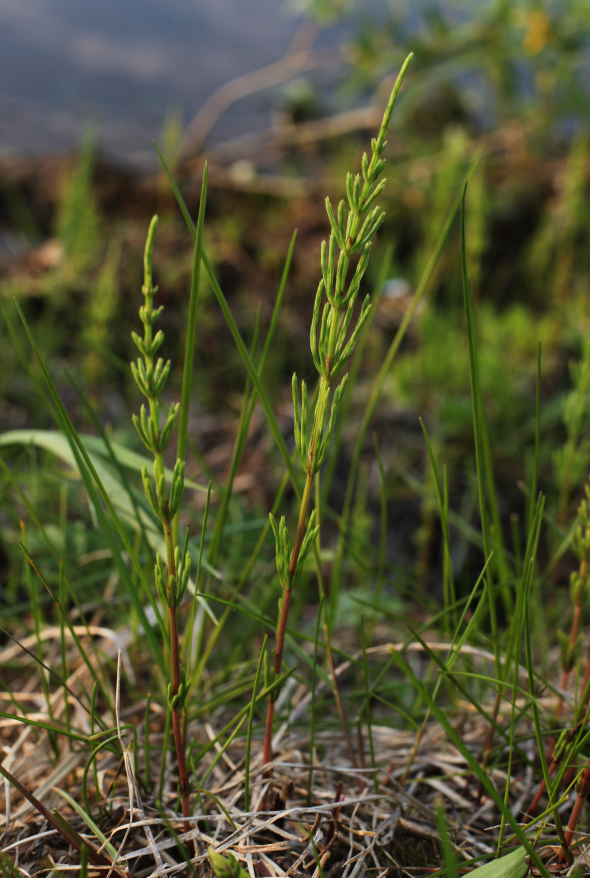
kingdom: Plantae
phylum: Tracheophyta
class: Polypodiopsida
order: Equisetales
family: Equisetaceae
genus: Equisetum
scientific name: Equisetum arvense
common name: Field horsetail
